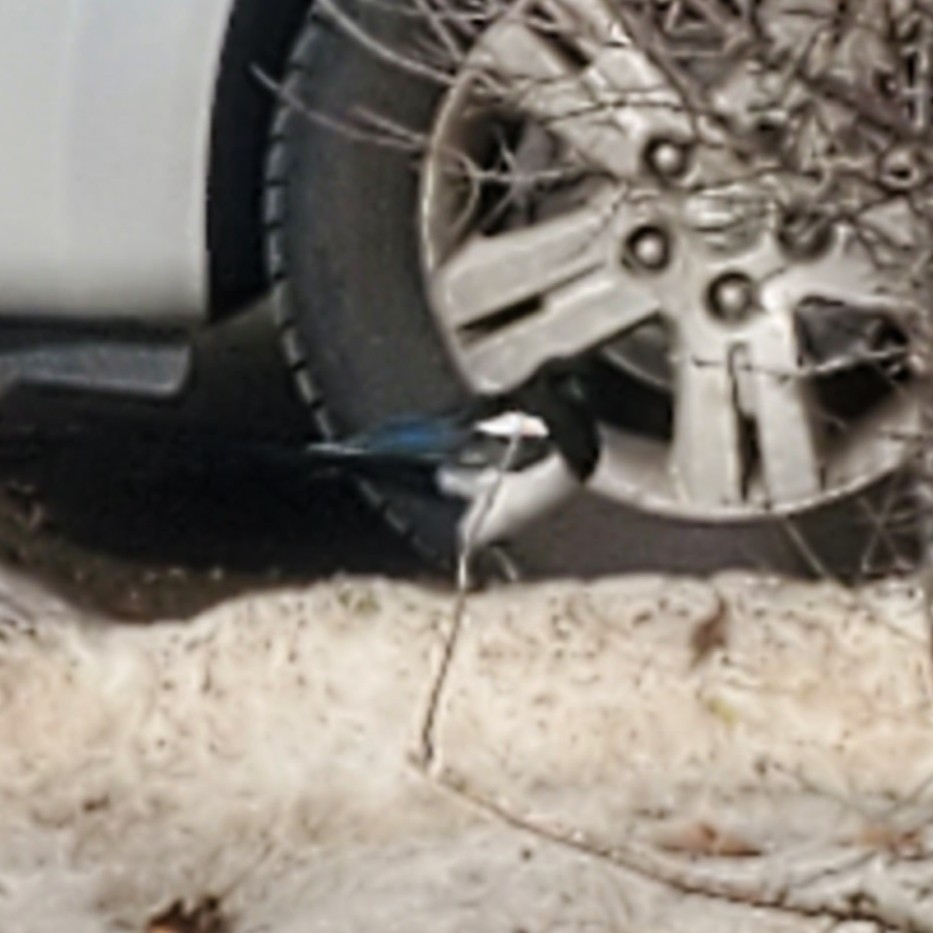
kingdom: Animalia
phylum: Chordata
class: Aves
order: Passeriformes
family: Corvidae
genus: Pica
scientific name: Pica hudsonia
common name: Black-billed magpie
